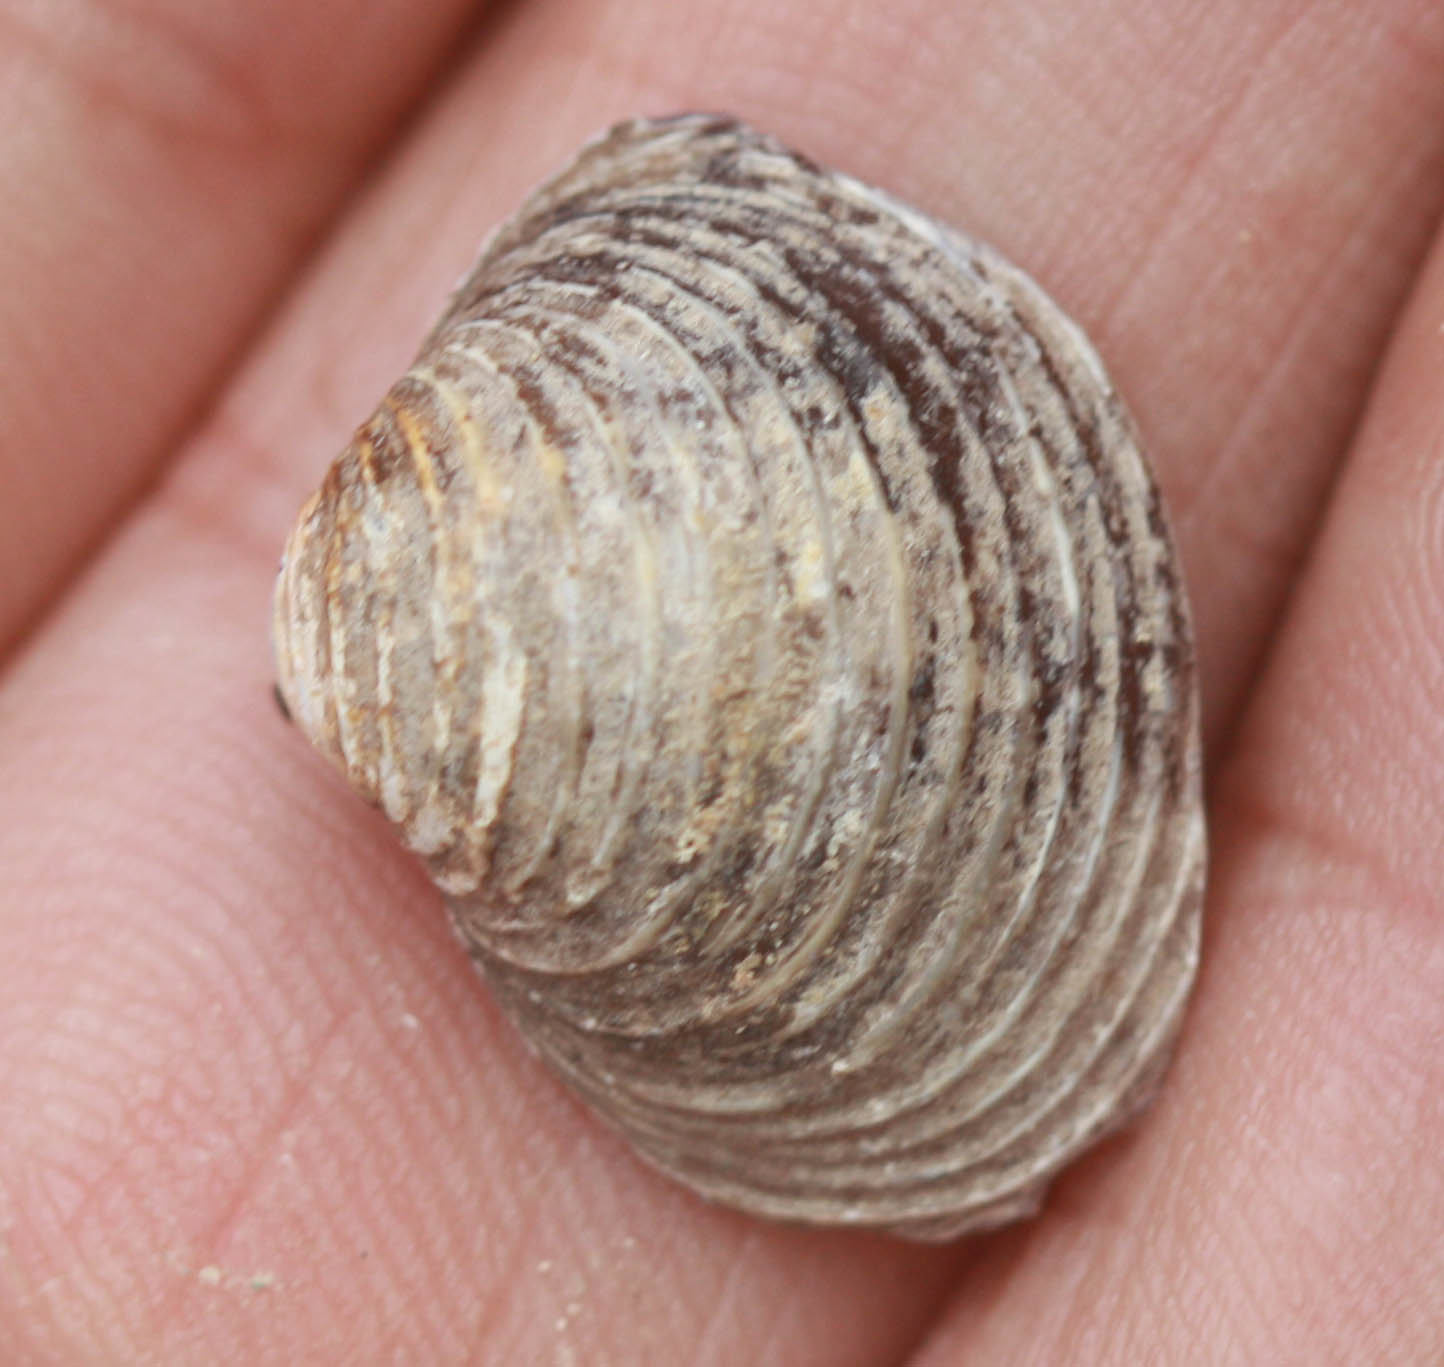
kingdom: Animalia
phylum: Mollusca
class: Bivalvia
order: Venerida
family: Cyrenidae
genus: Corbicula
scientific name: Corbicula fluminea
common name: Asian clam
